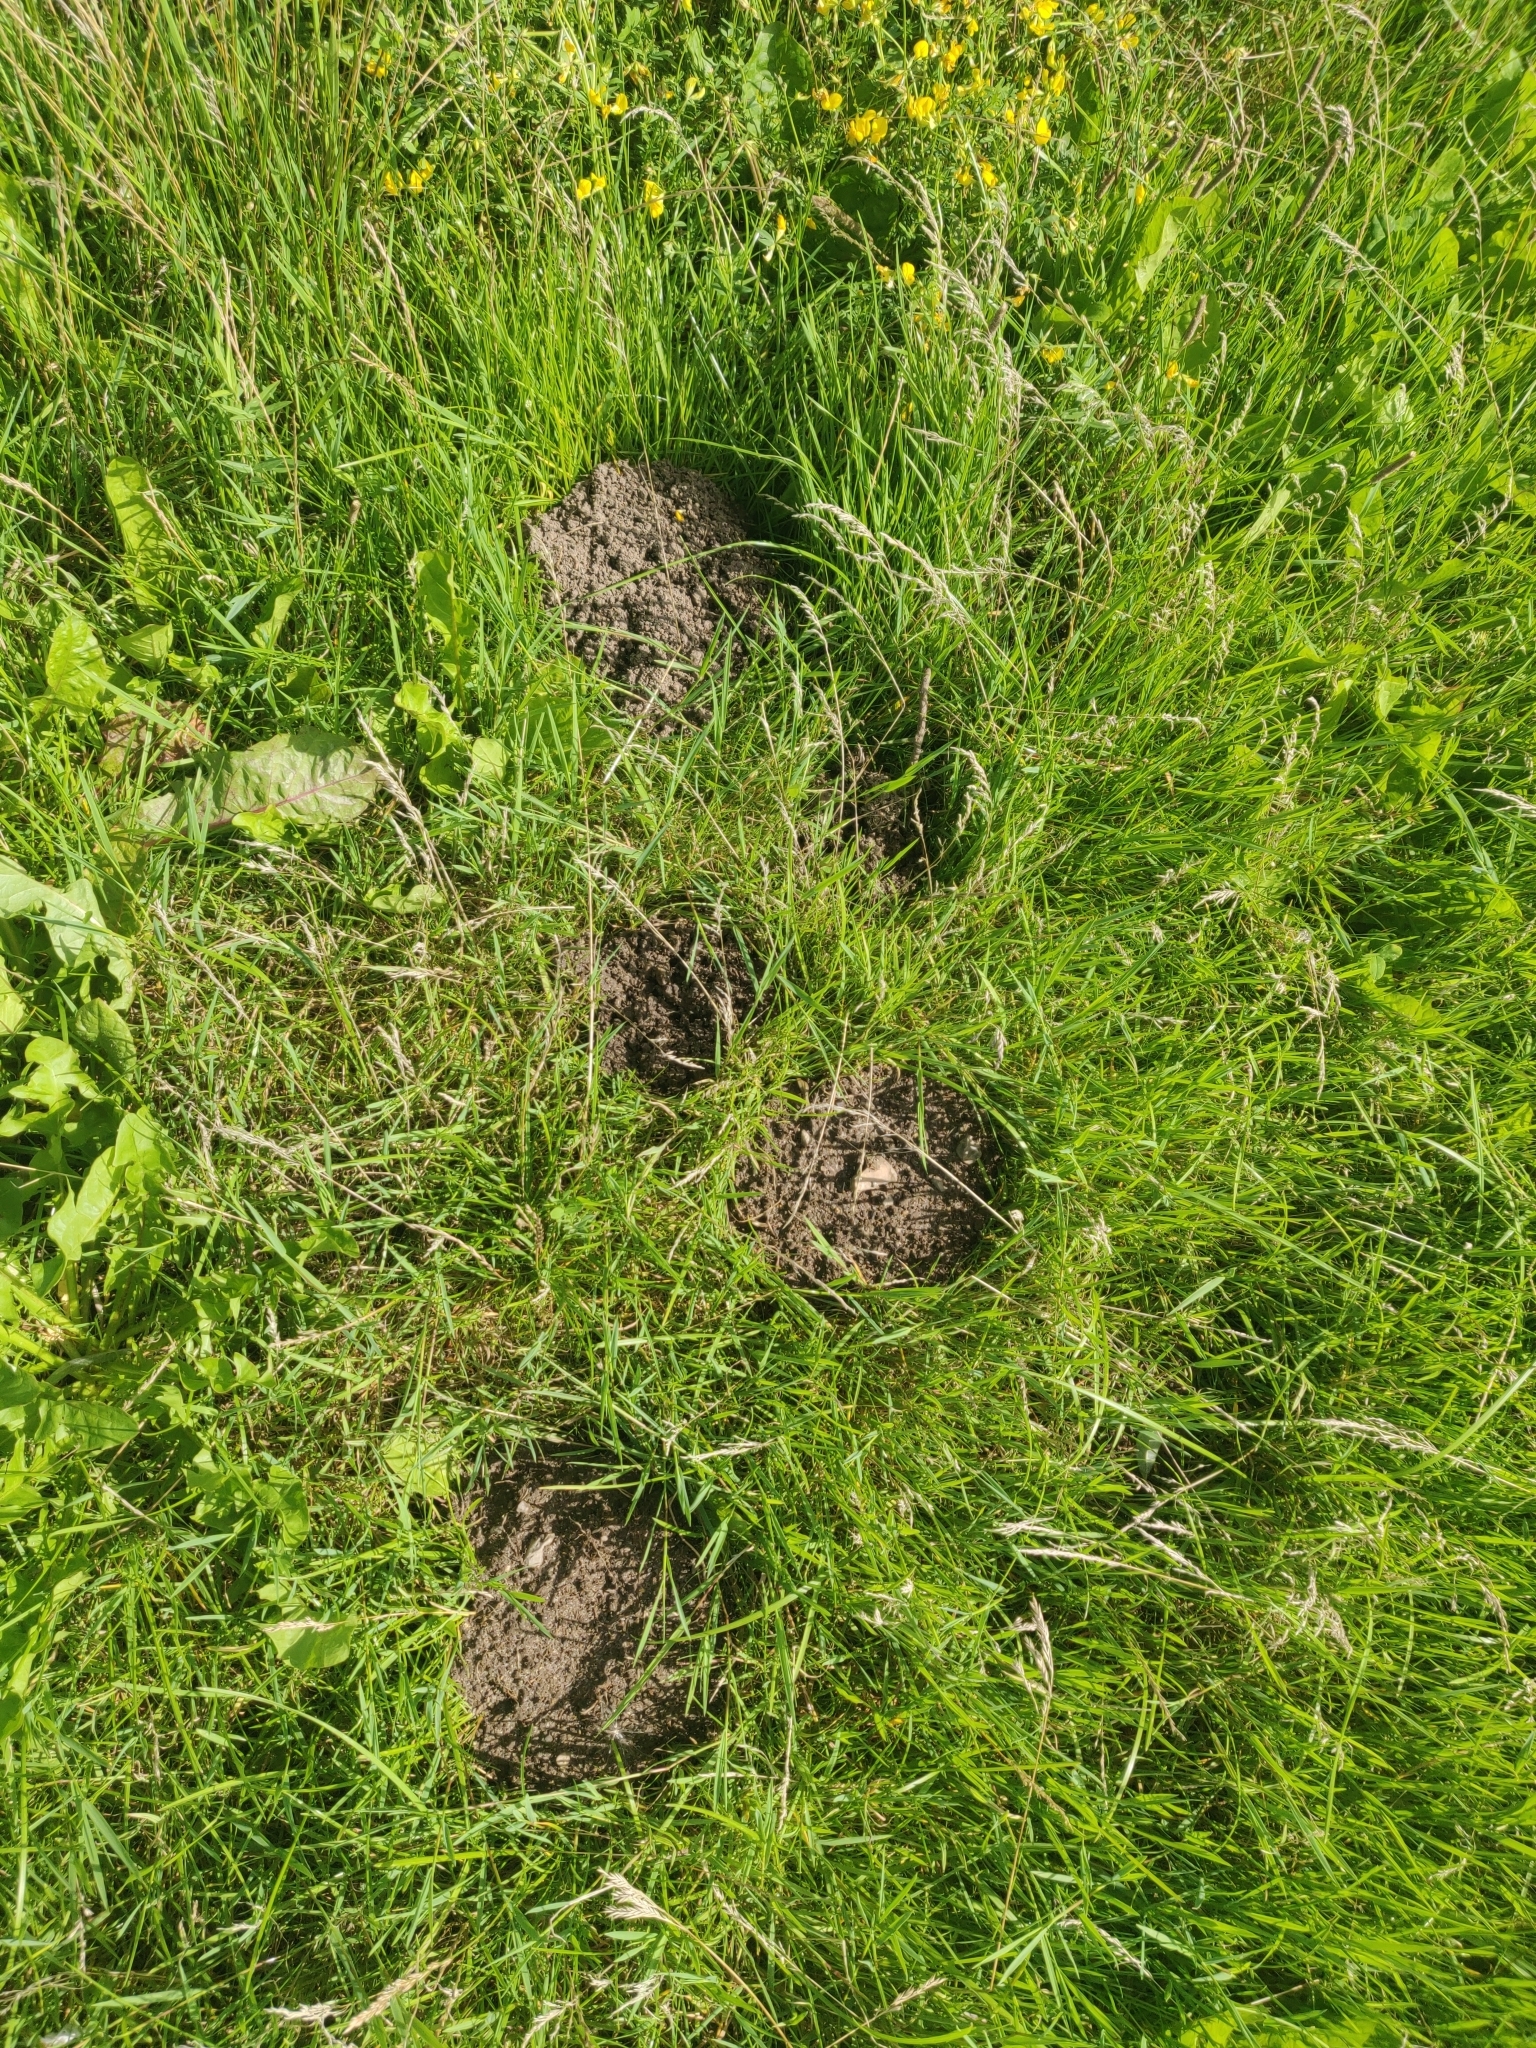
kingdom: Animalia
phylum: Chordata
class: Mammalia
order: Soricomorpha
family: Talpidae
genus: Talpa
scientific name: Talpa europaea
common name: European mole
